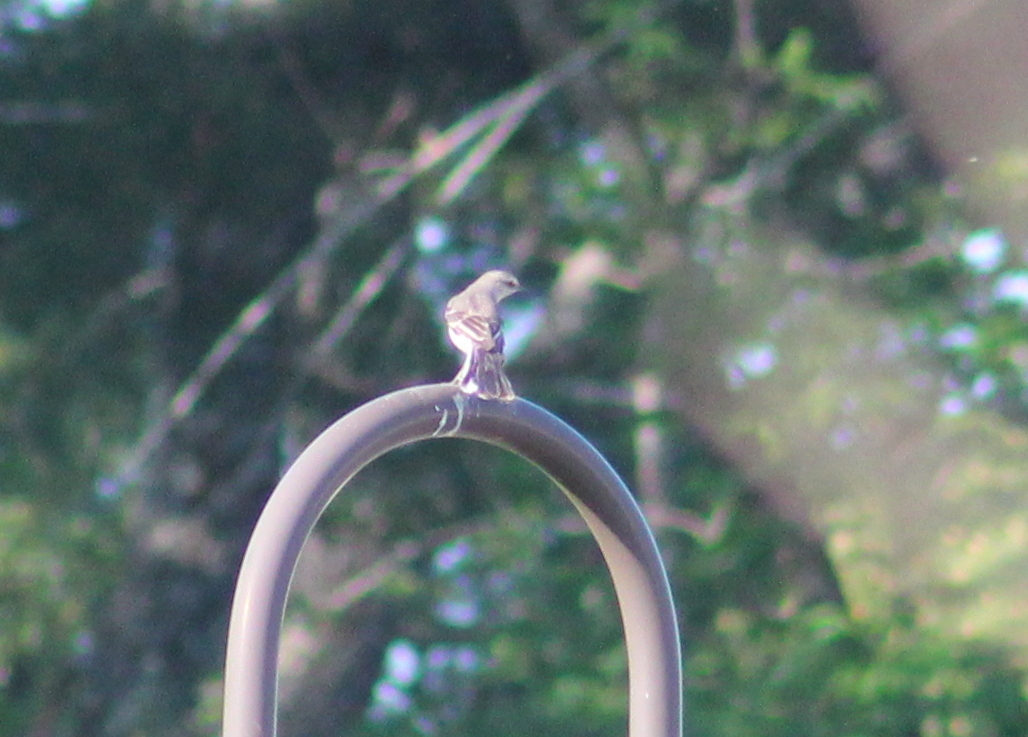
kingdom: Animalia
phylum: Chordata
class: Aves
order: Passeriformes
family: Mimidae
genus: Mimus
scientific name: Mimus polyglottos
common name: Northern mockingbird
